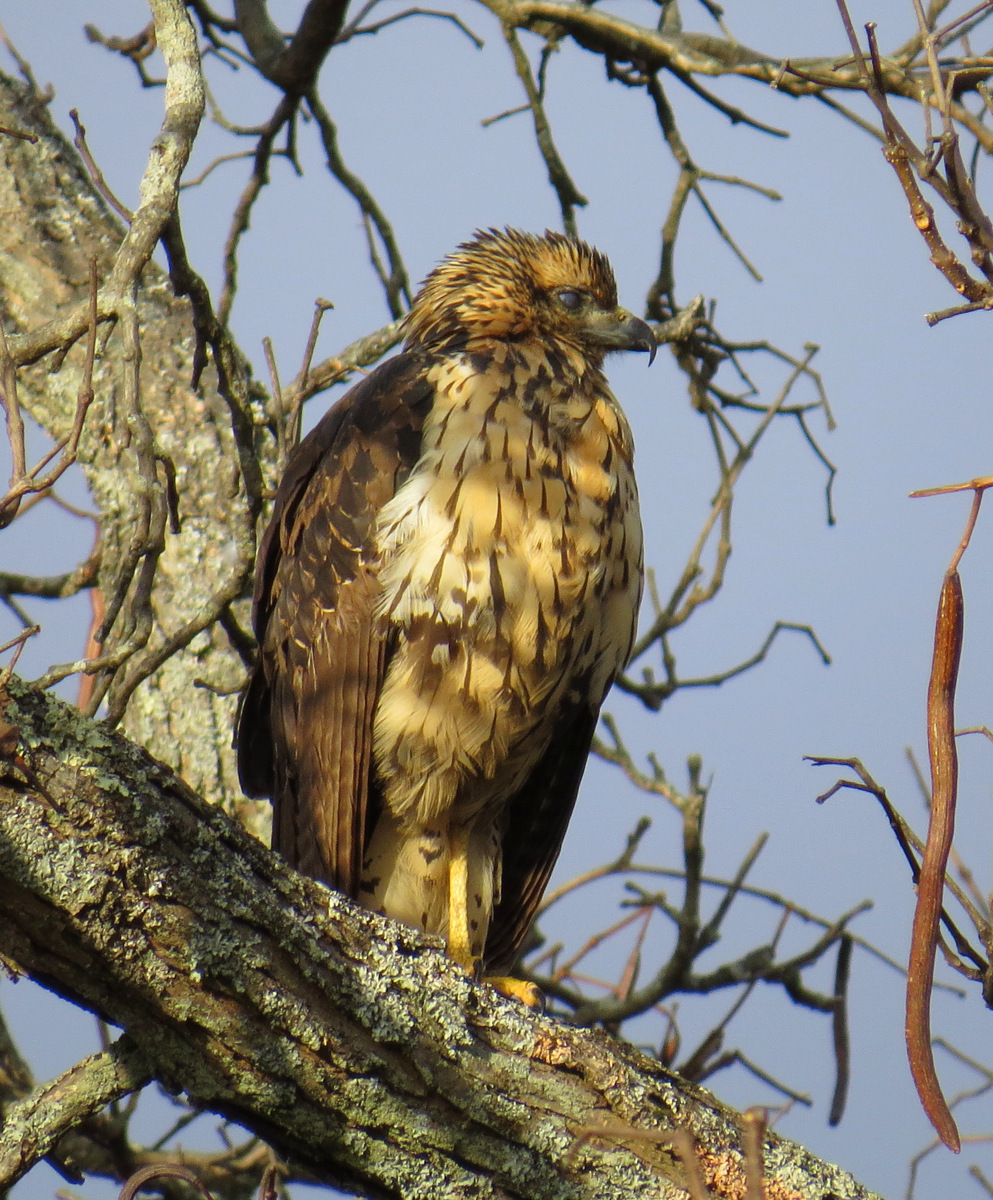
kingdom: Animalia
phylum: Chordata
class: Aves
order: Accipitriformes
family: Accipitridae
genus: Buteogallus
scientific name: Buteogallus urubitinga
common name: Great black hawk
